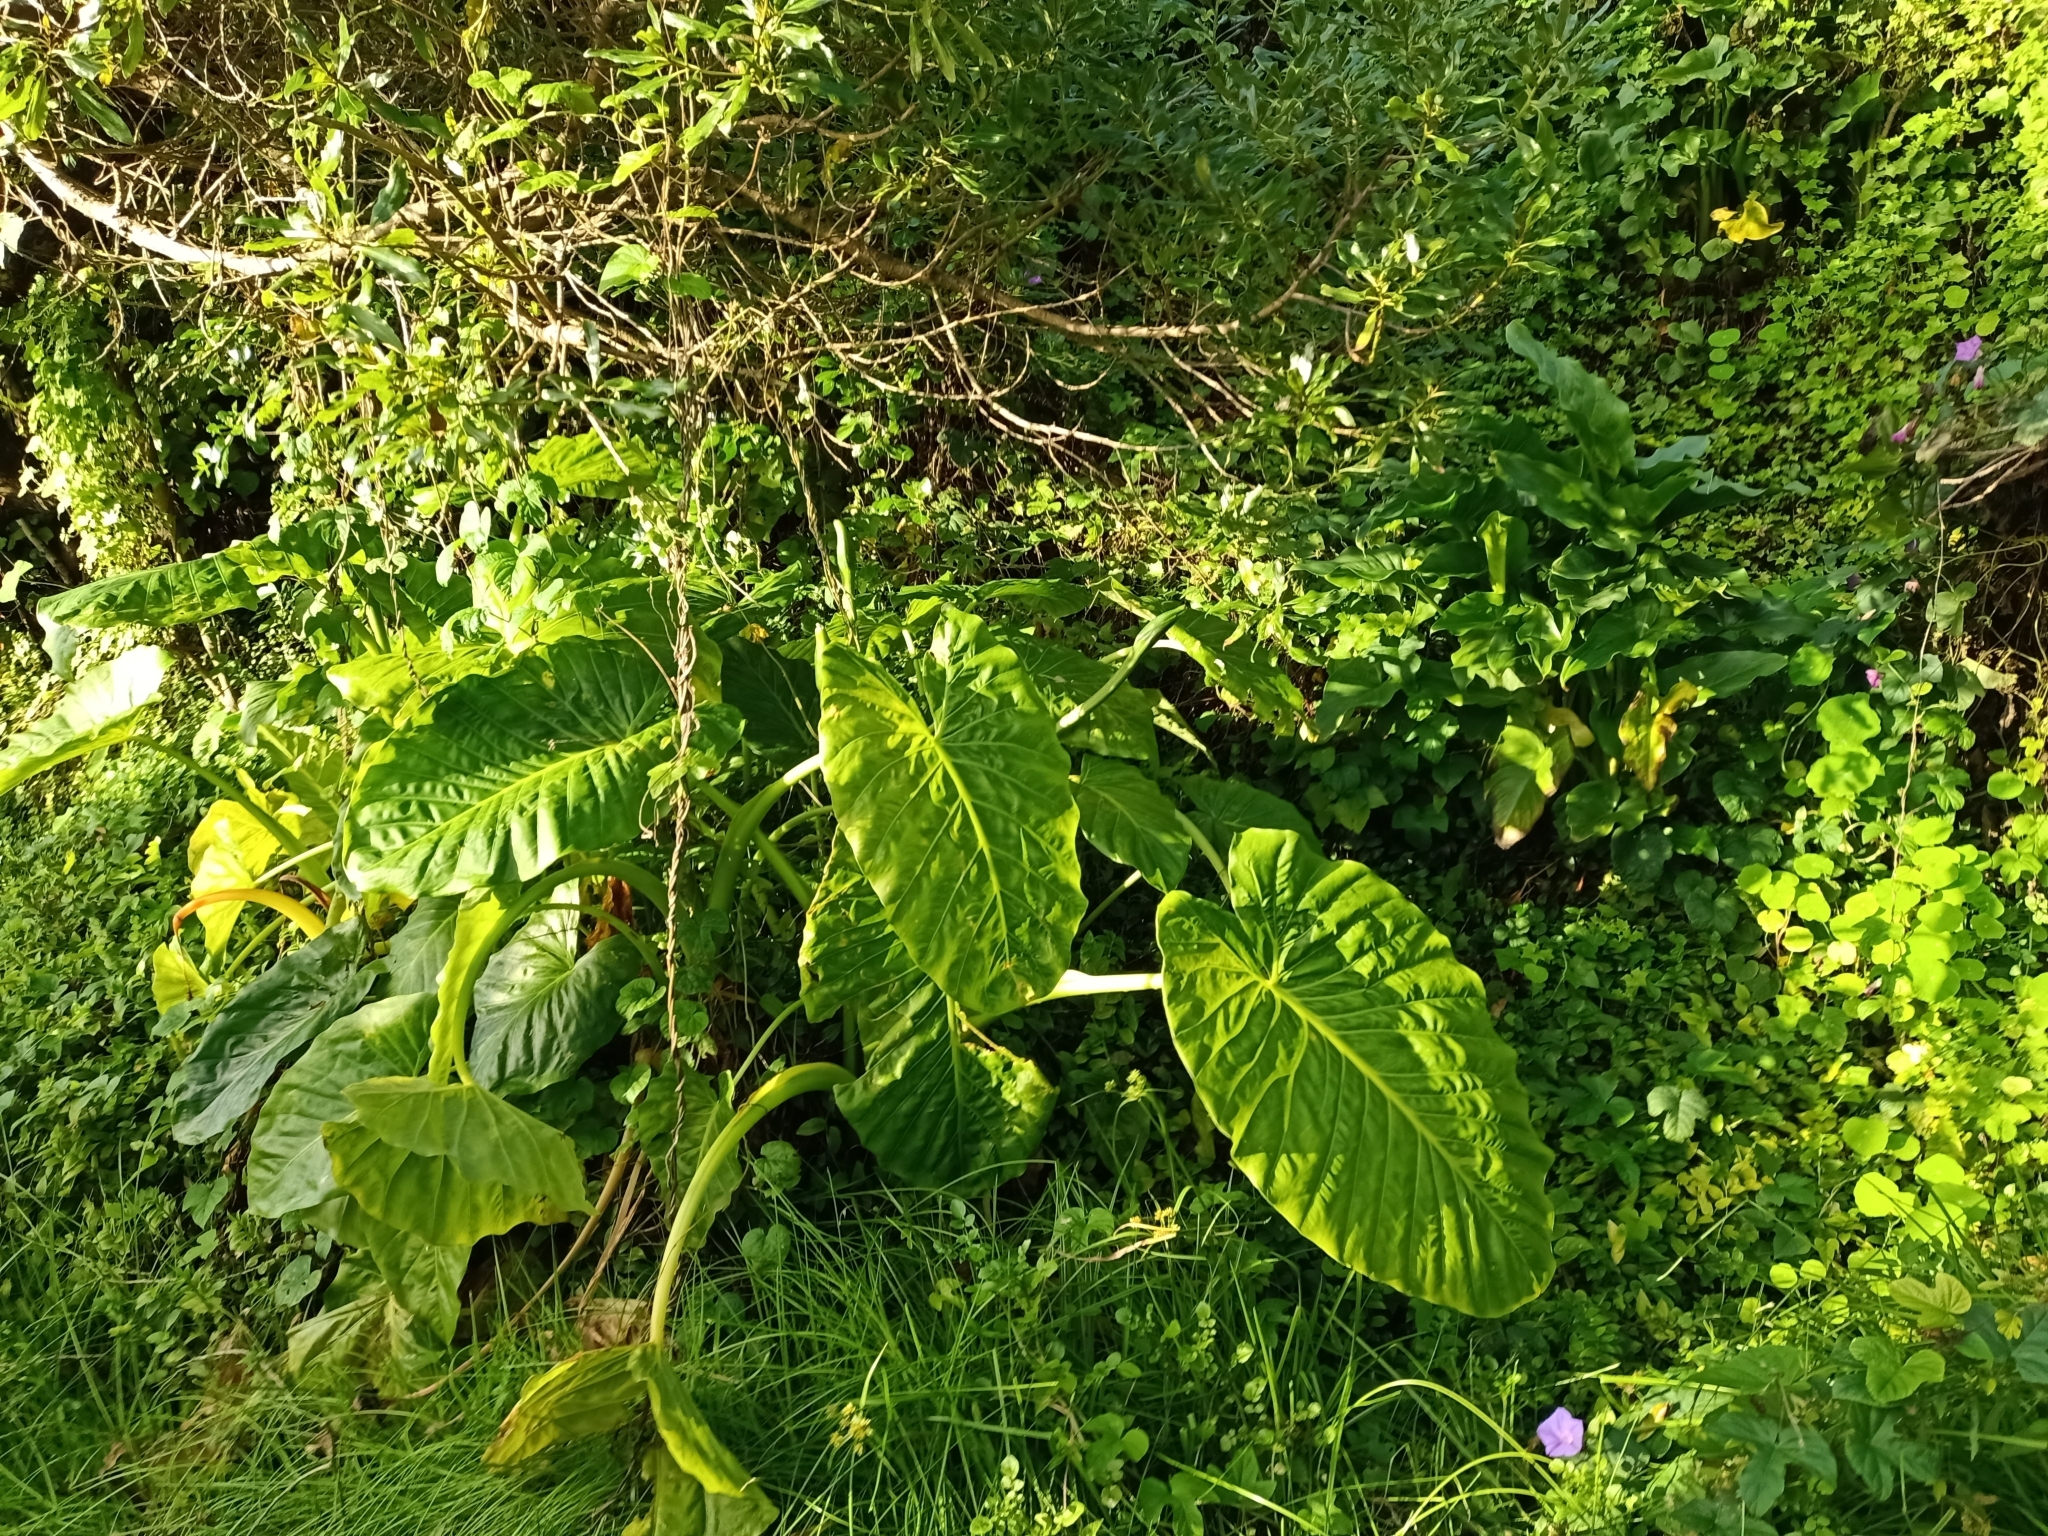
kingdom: Plantae
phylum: Tracheophyta
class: Liliopsida
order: Alismatales
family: Araceae
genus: Alocasia
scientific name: Alocasia brisbanensis
